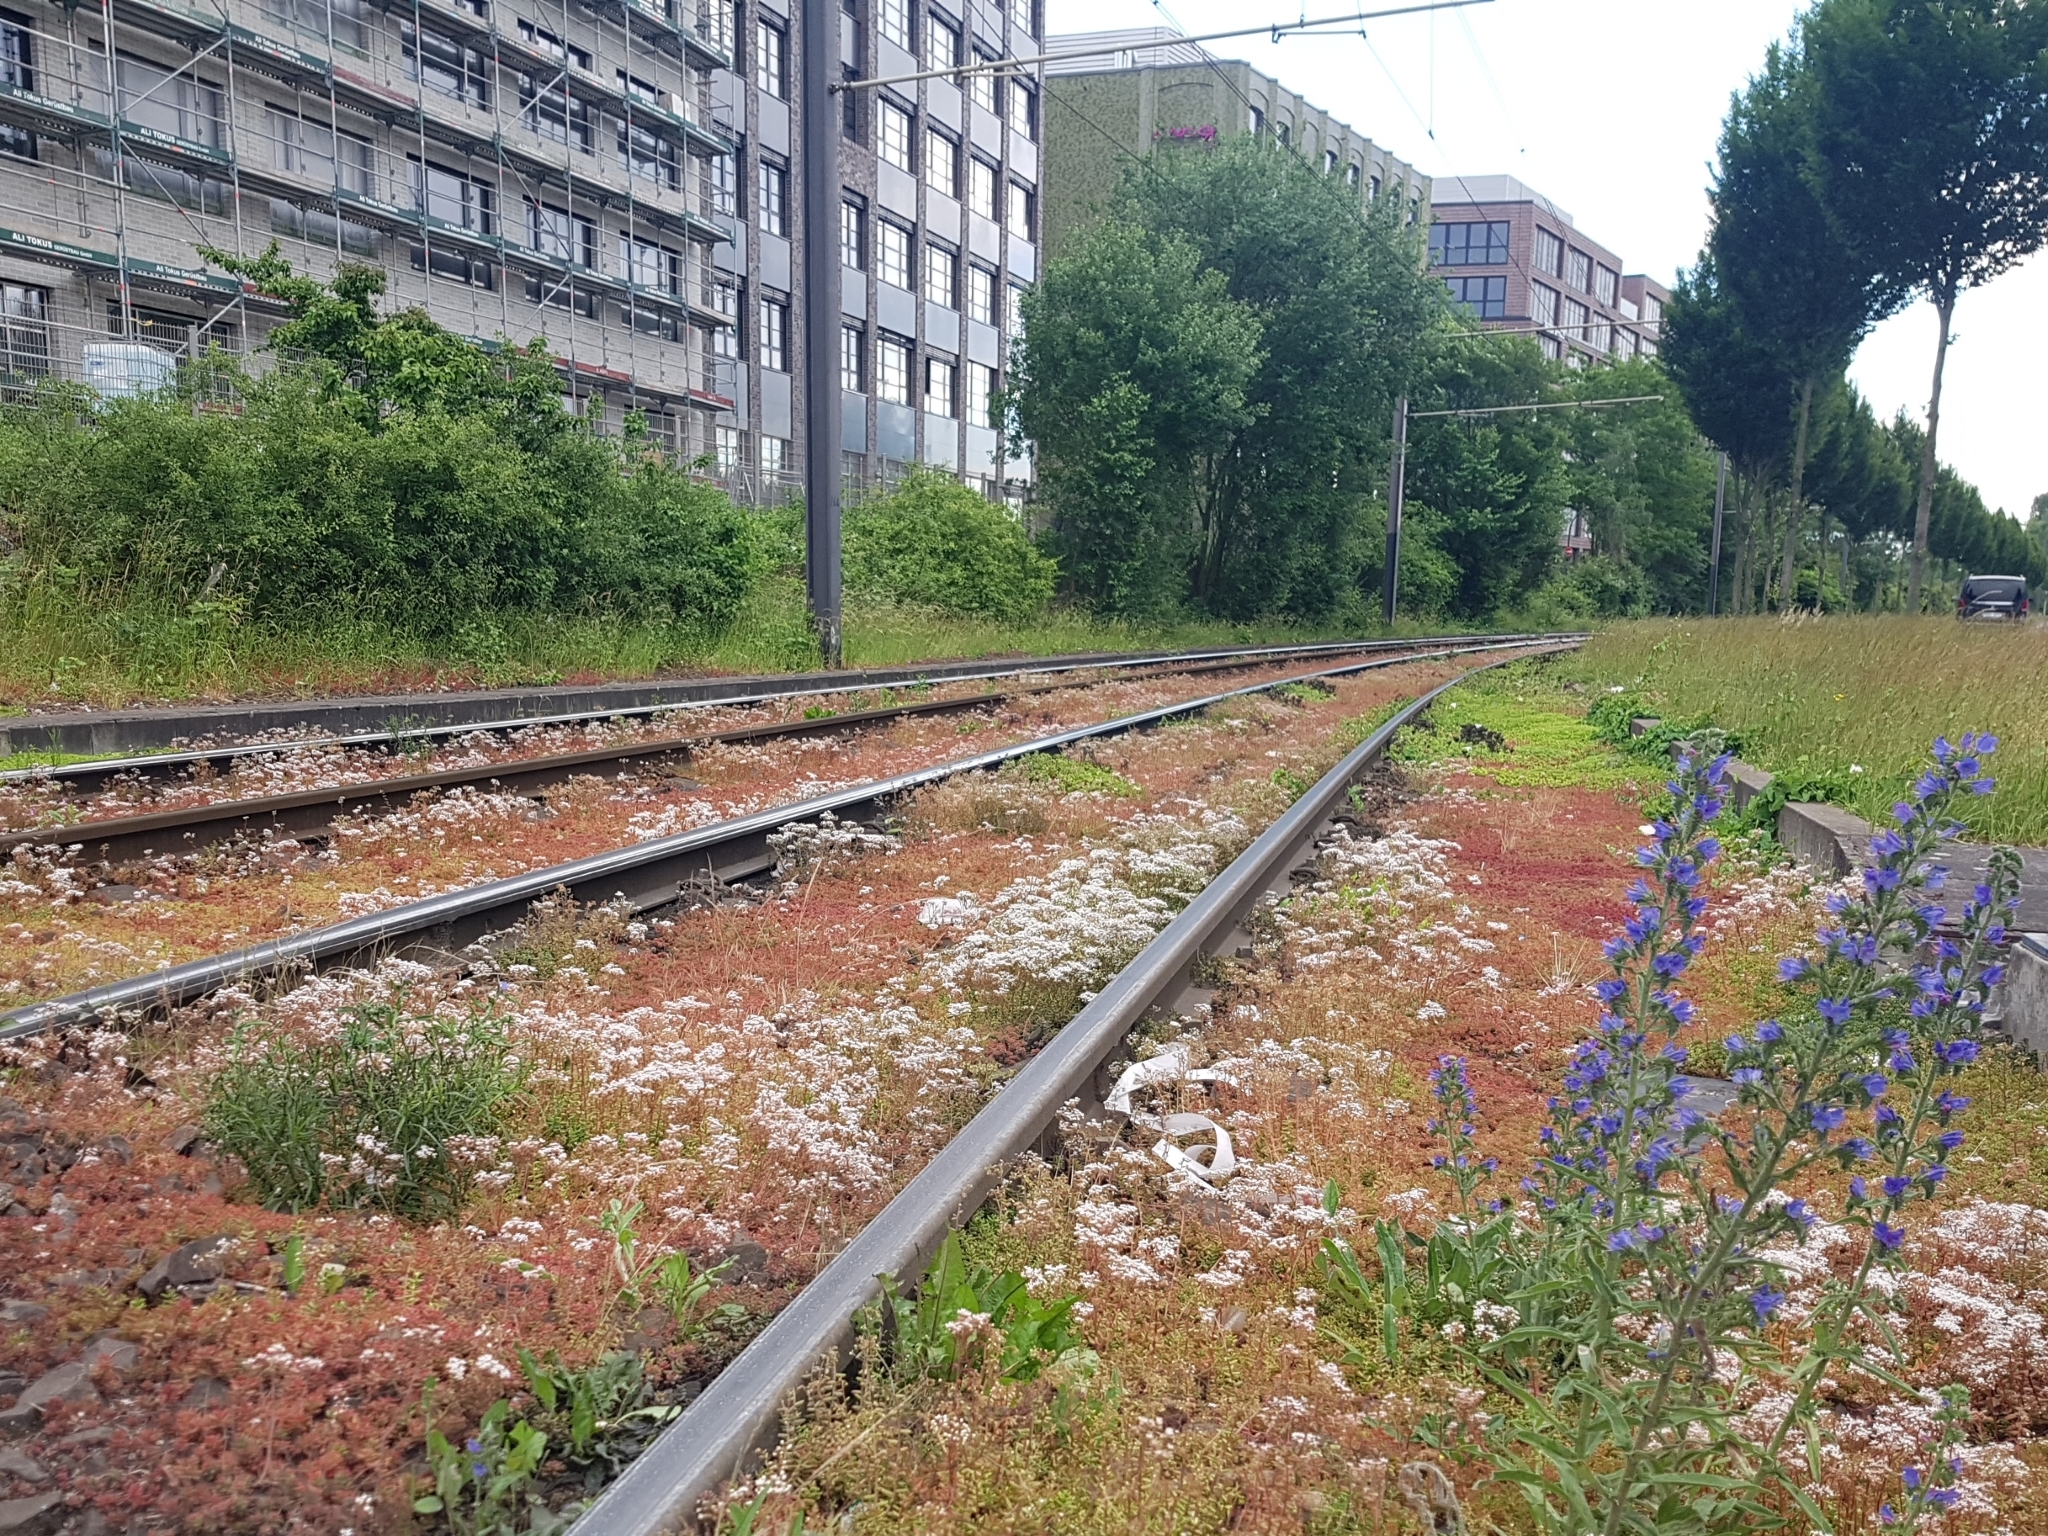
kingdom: Plantae
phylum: Tracheophyta
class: Magnoliopsida
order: Saxifragales
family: Crassulaceae
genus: Sedum
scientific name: Sedum album
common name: White stonecrop
